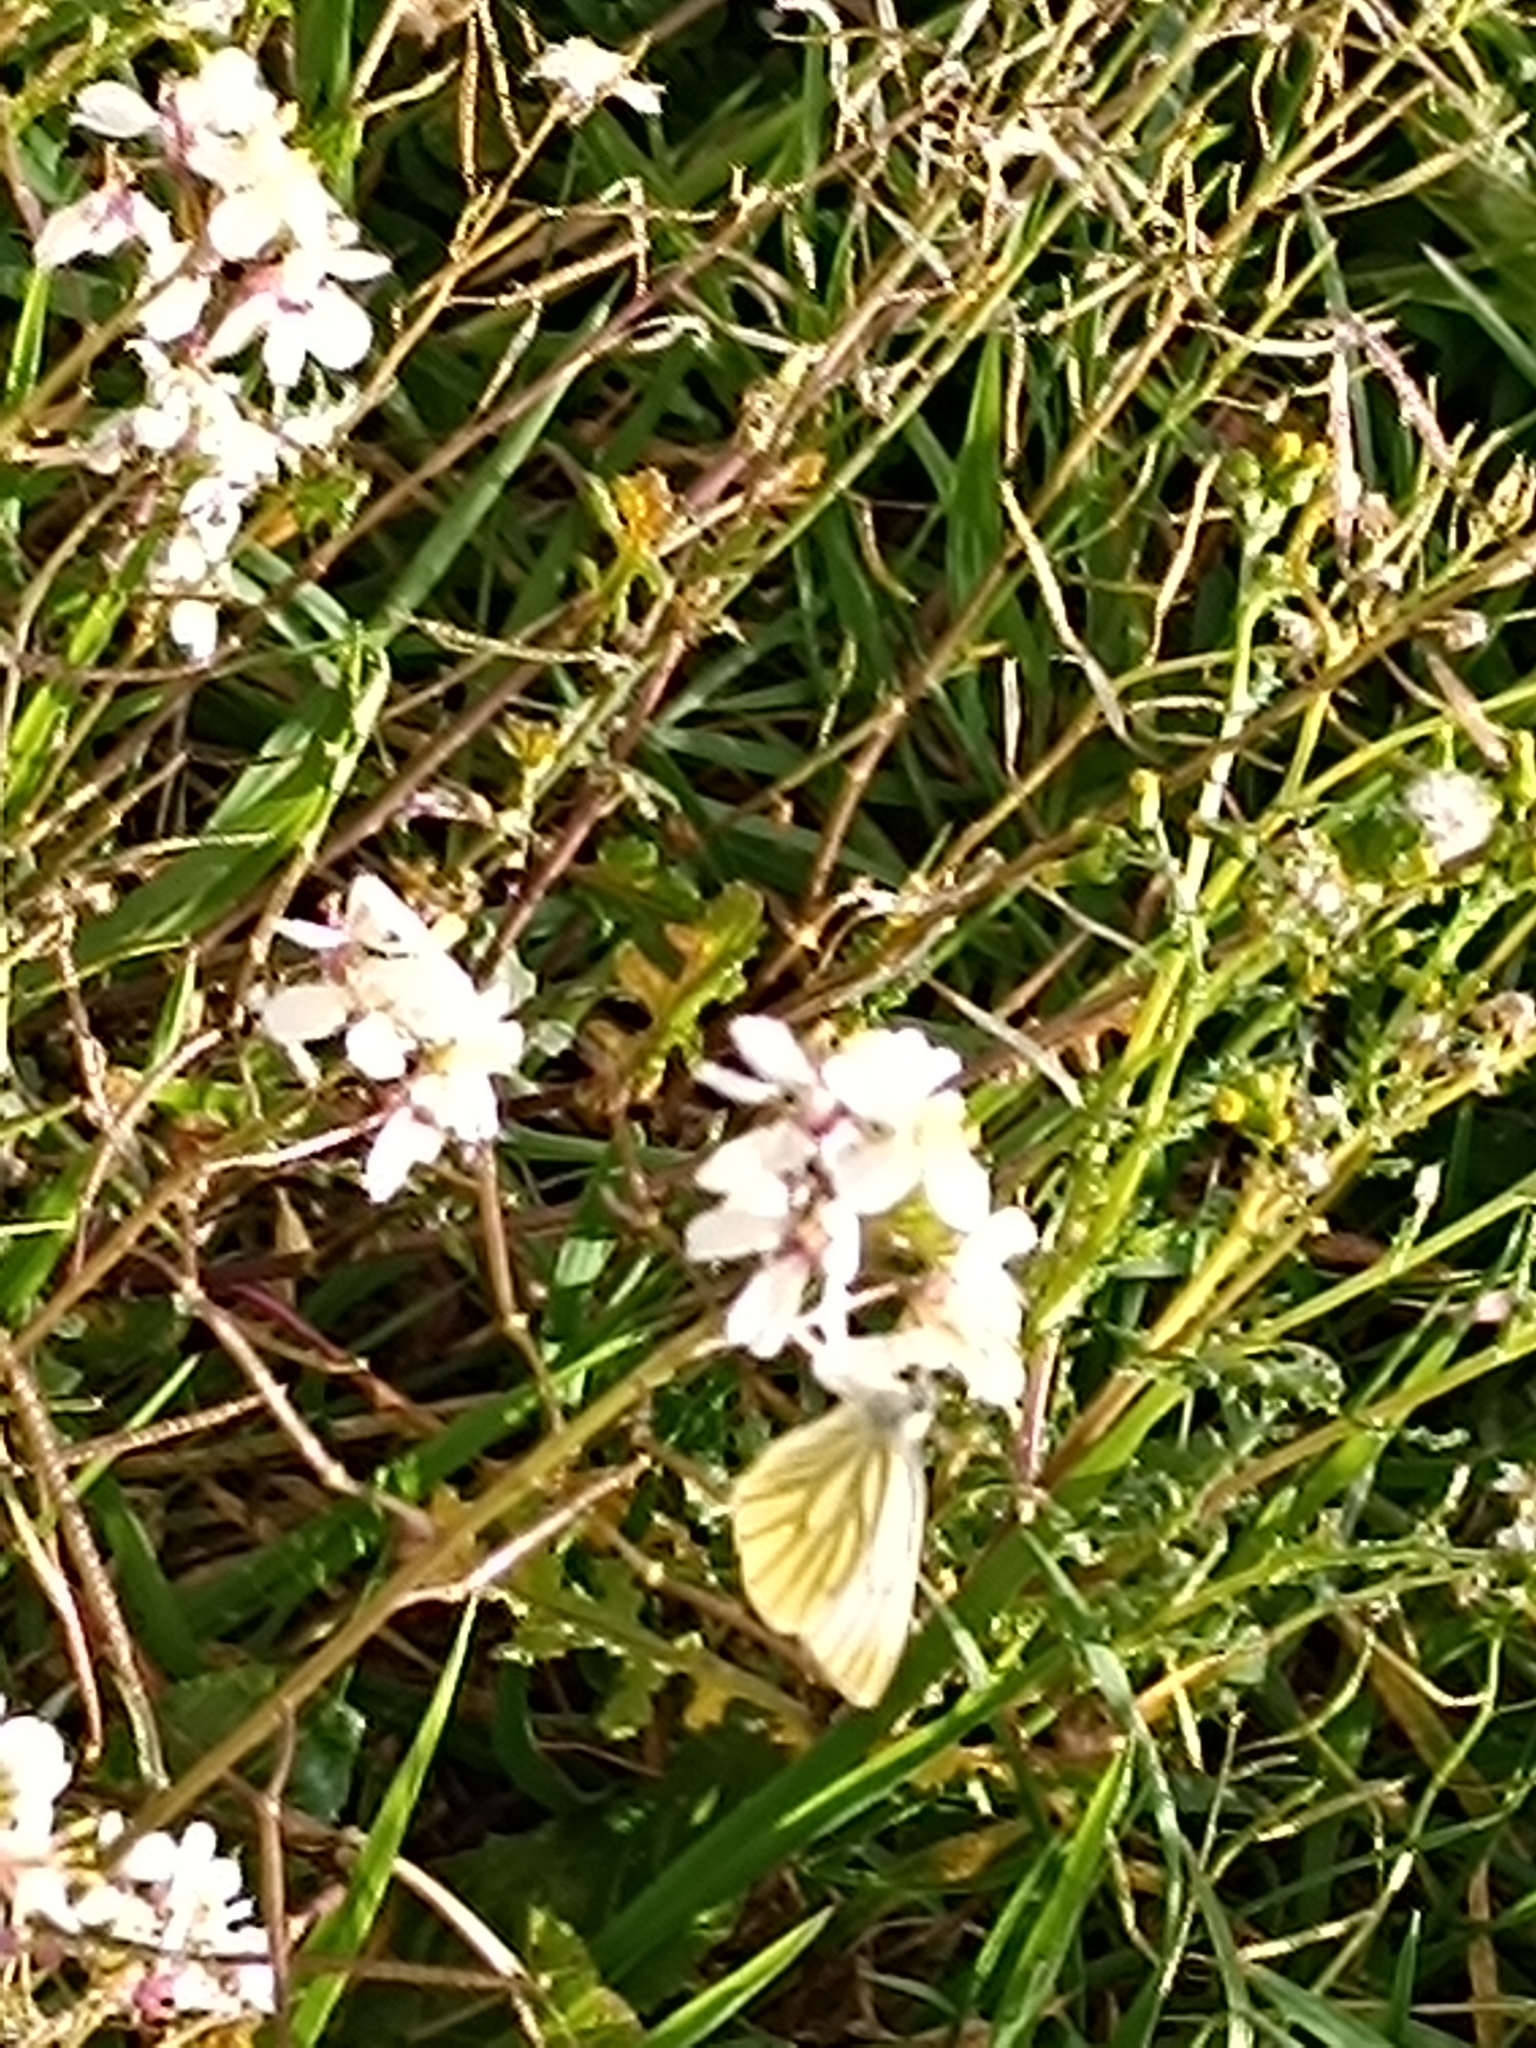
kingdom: Animalia
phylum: Arthropoda
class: Insecta
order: Lepidoptera
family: Pieridae
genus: Pieris
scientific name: Pieris napi
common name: Green-veined white
